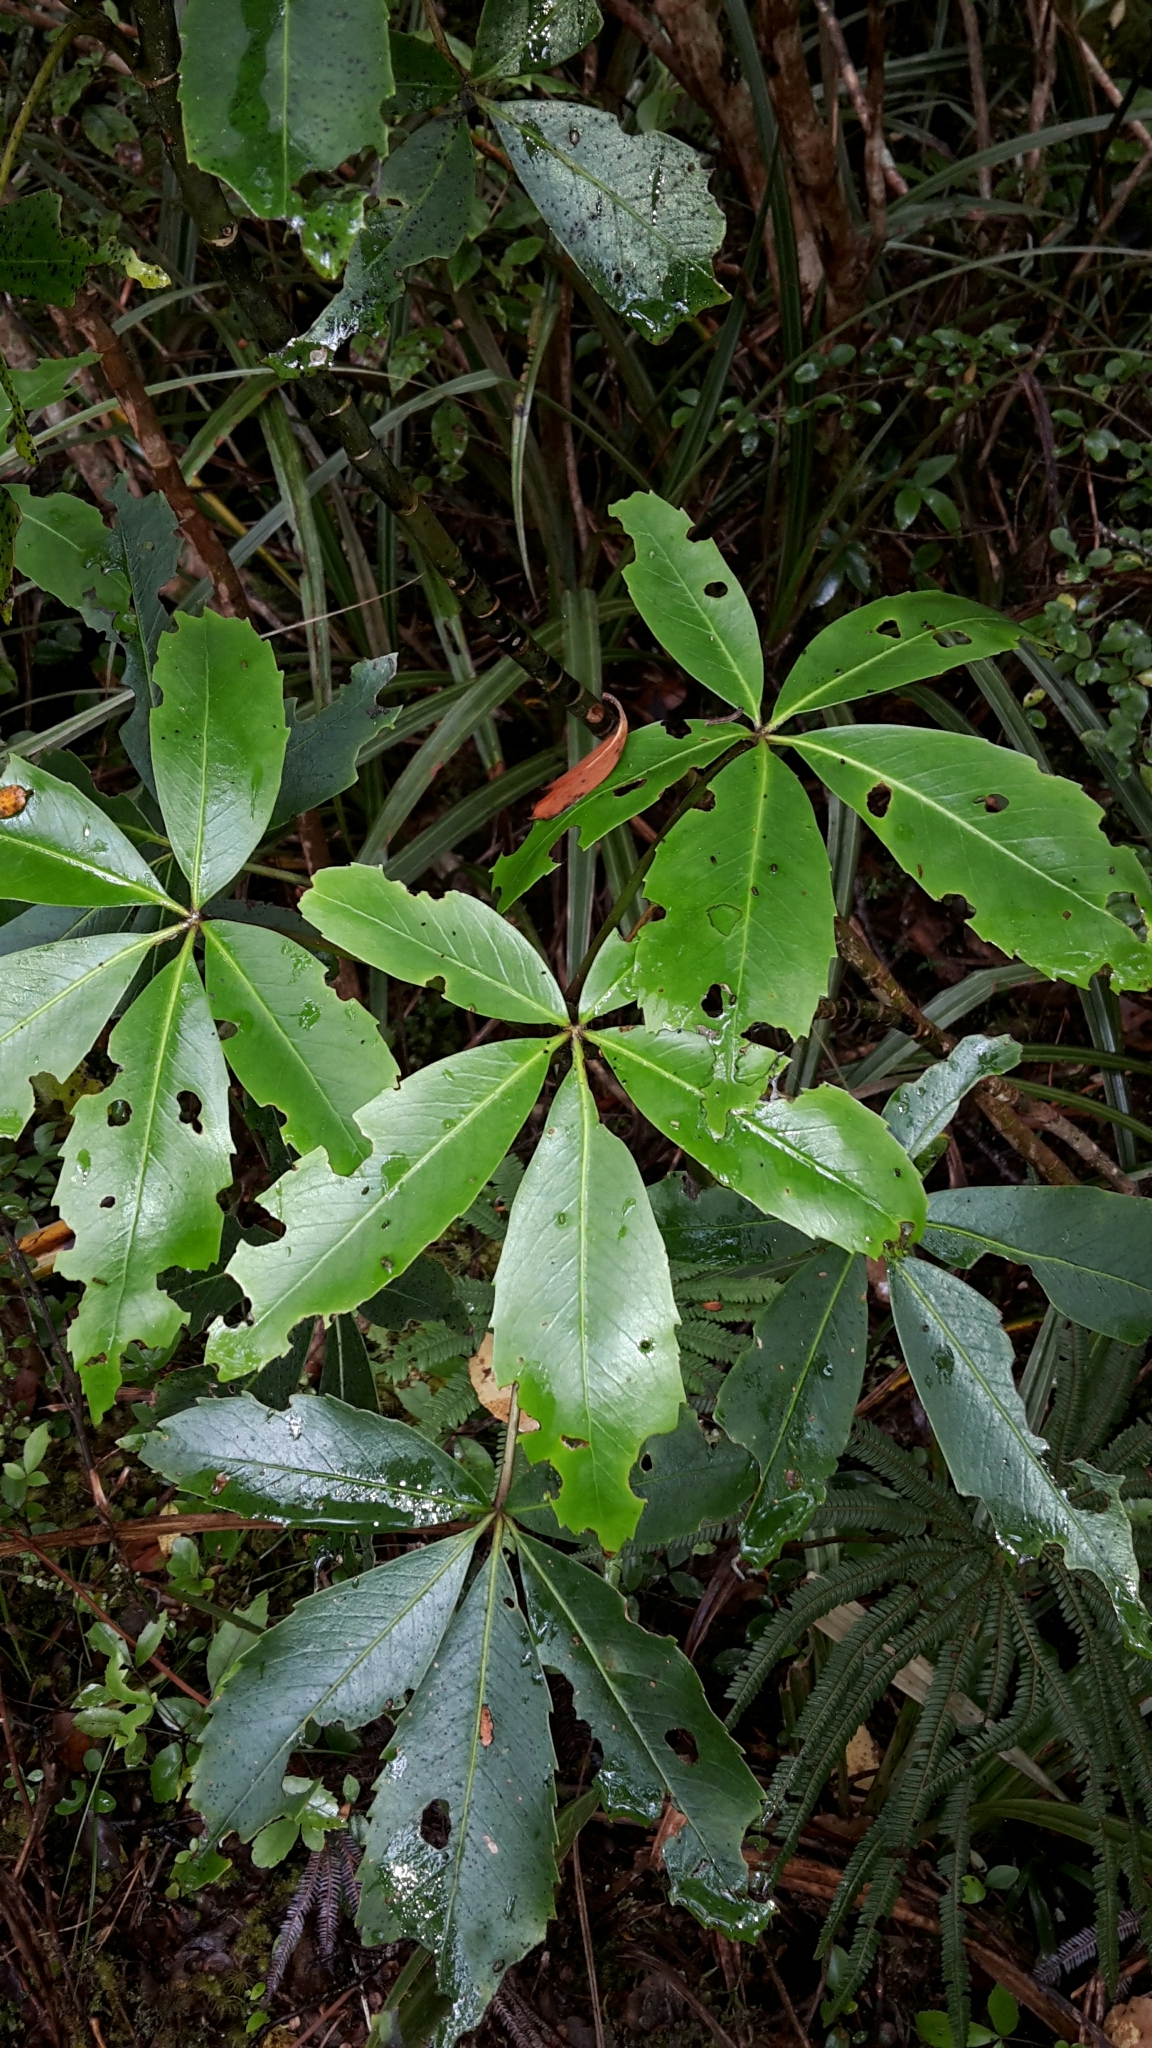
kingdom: Plantae
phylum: Tracheophyta
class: Magnoliopsida
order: Apiales
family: Araliaceae
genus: Neopanax
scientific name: Neopanax colensoi
